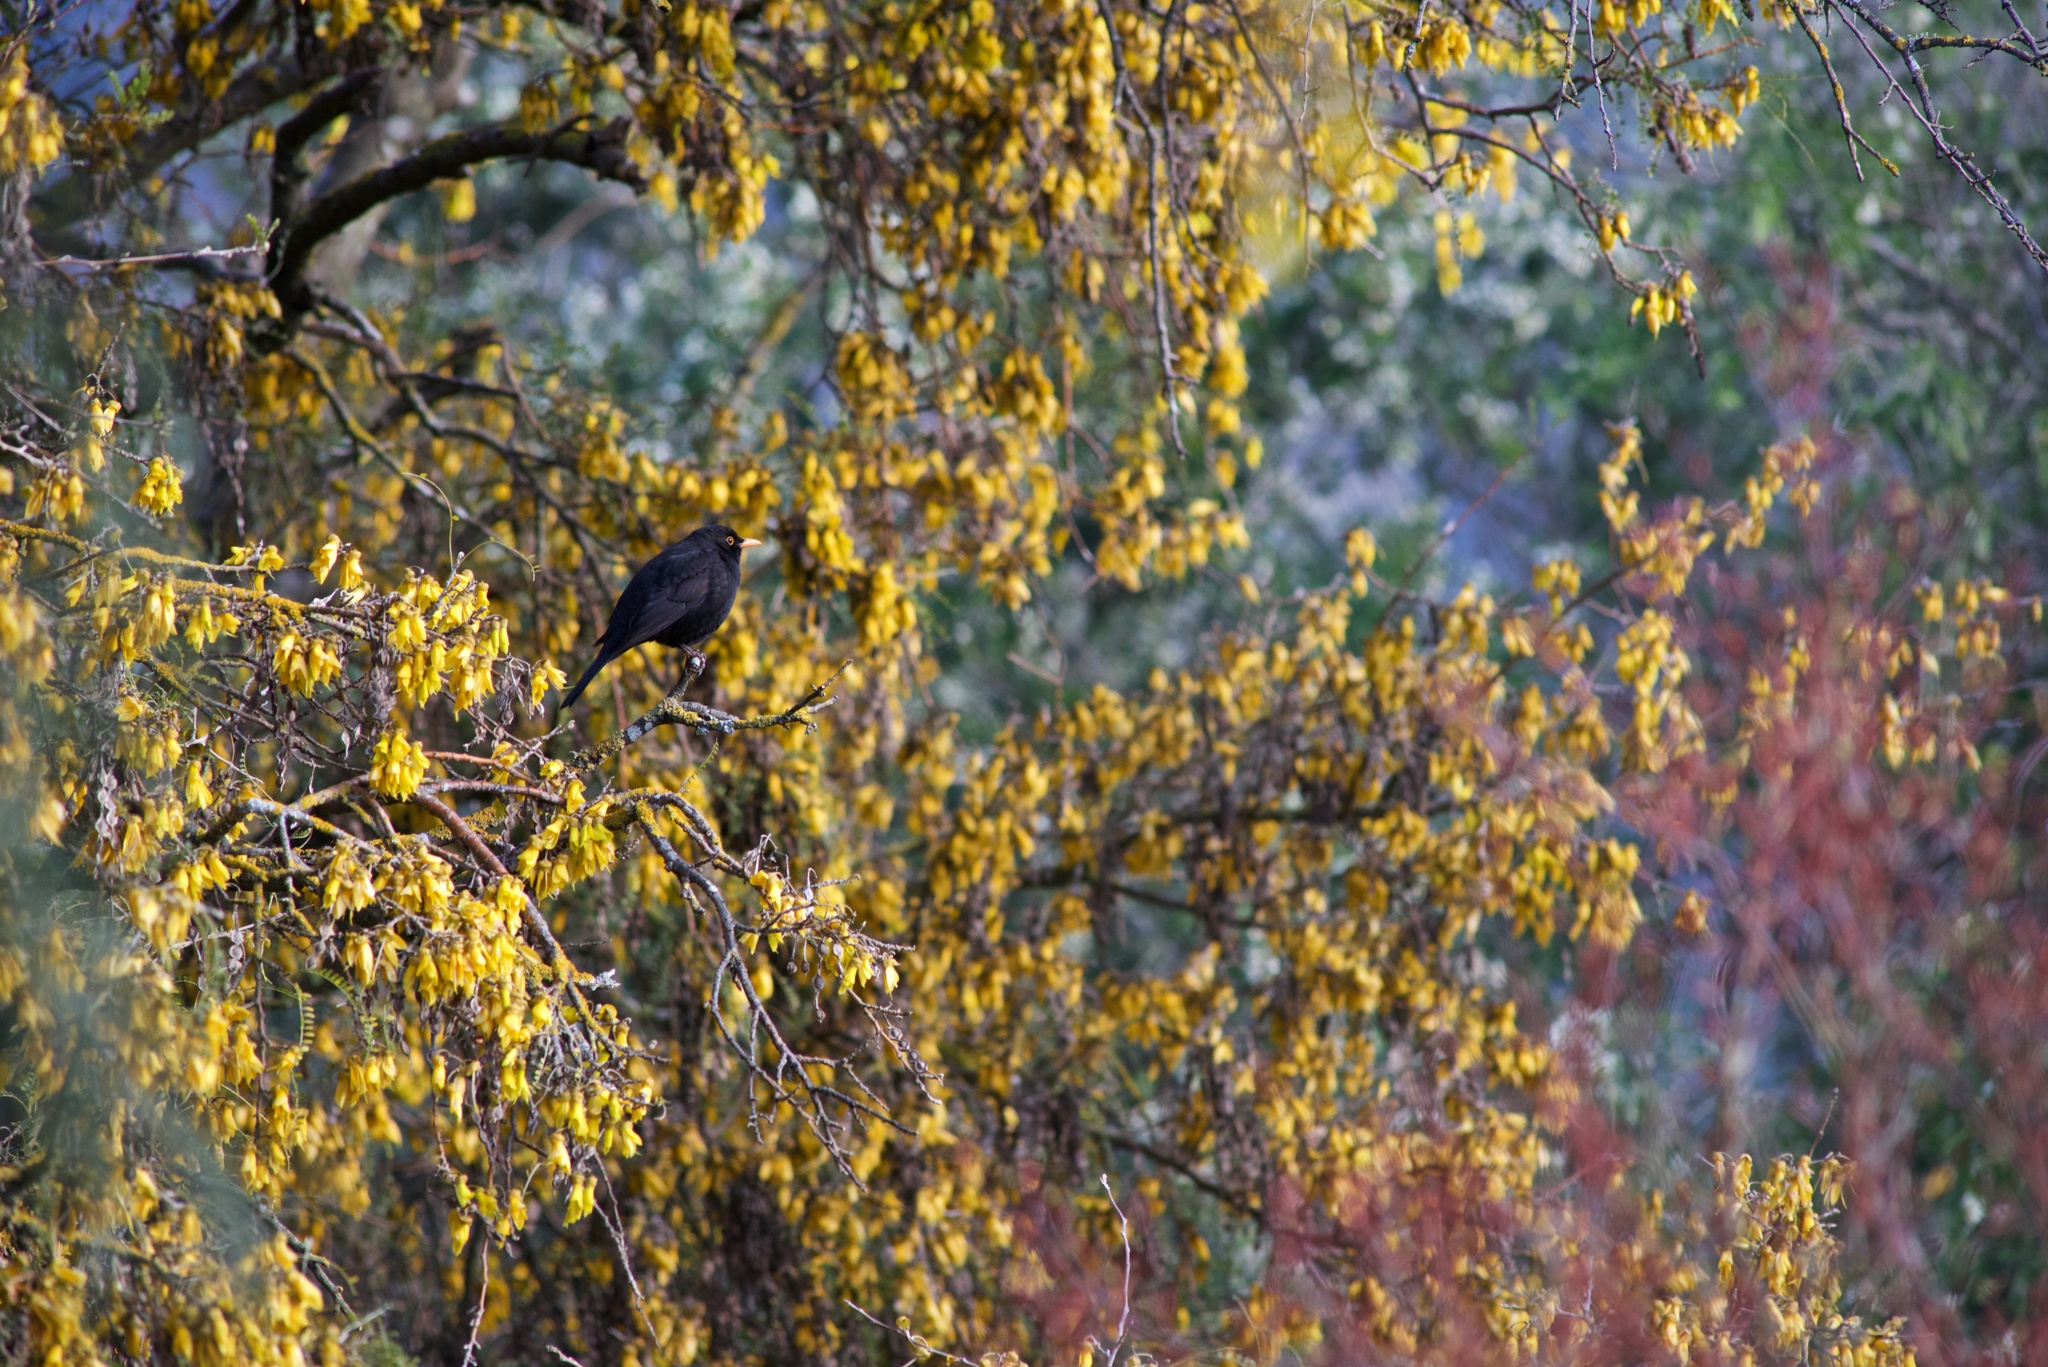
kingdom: Animalia
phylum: Chordata
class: Aves
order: Passeriformes
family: Turdidae
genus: Turdus
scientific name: Turdus merula
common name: Common blackbird
